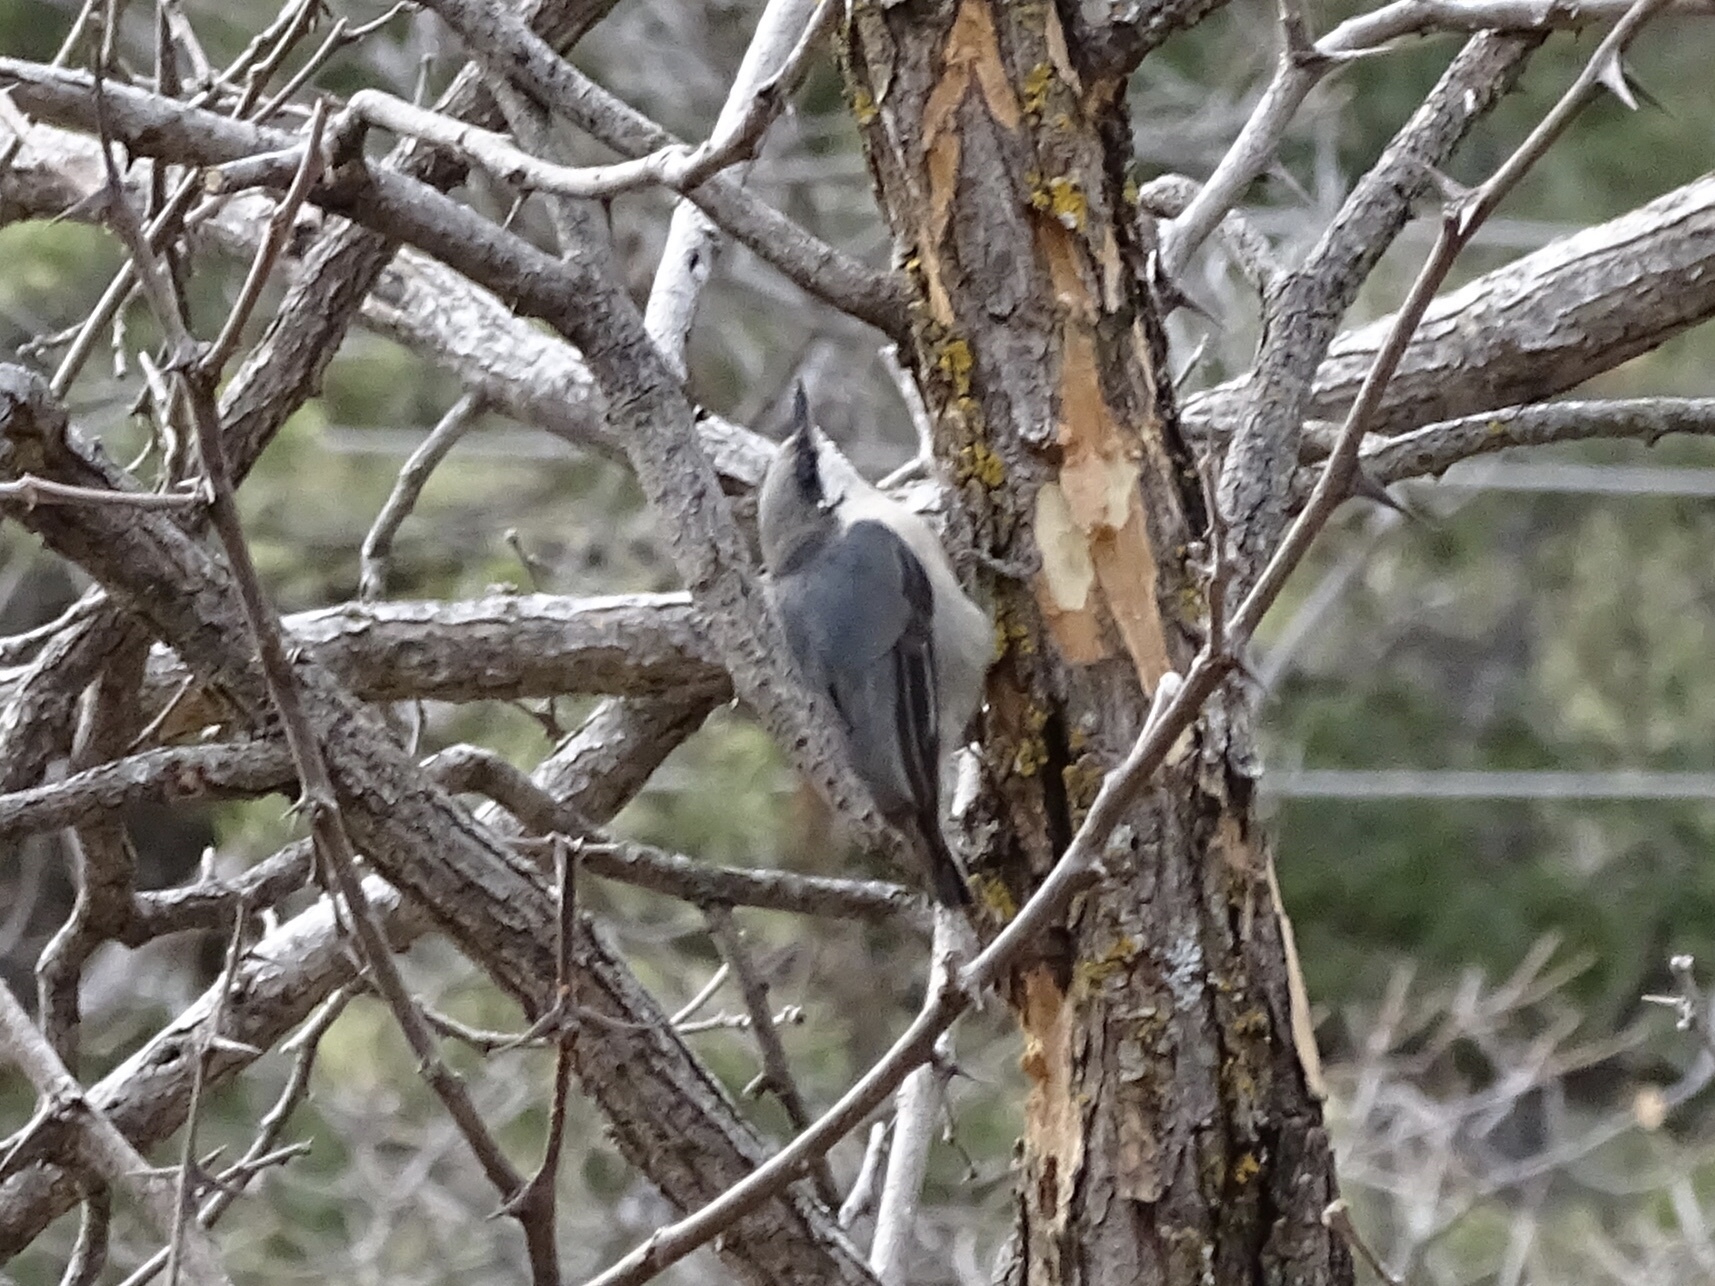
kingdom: Animalia
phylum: Chordata
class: Aves
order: Passeriformes
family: Sittidae
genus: Sitta
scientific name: Sitta pygmaea
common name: Pygmy nuthatch
